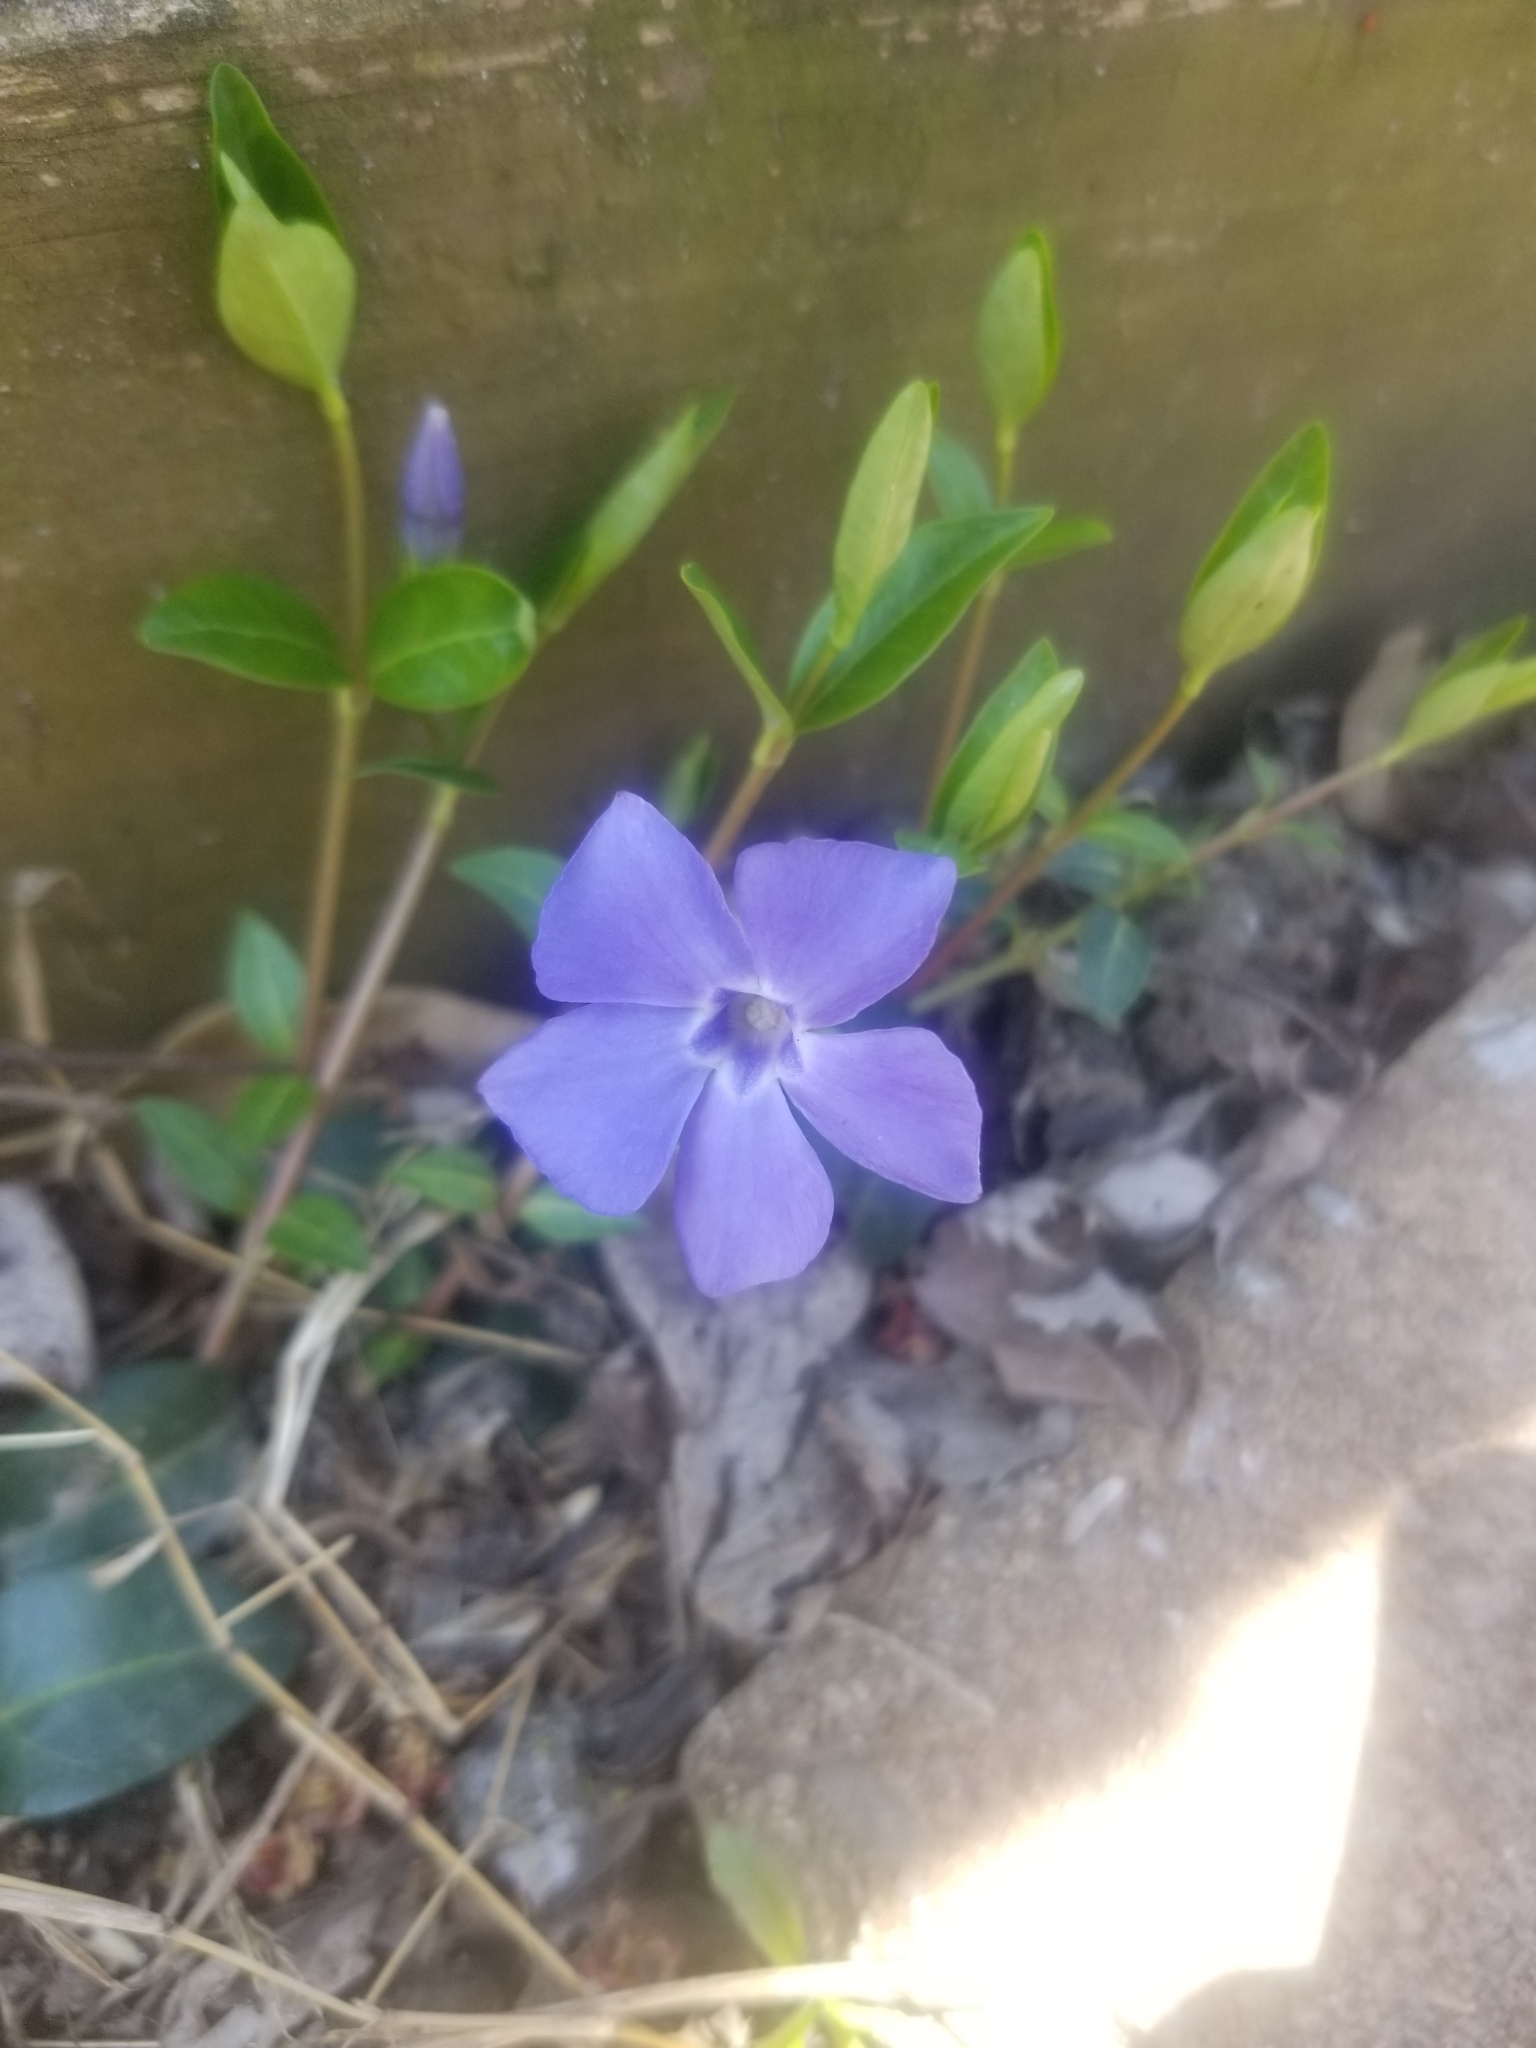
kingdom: Plantae
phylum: Tracheophyta
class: Magnoliopsida
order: Gentianales
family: Apocynaceae
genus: Vinca
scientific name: Vinca minor
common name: Lesser periwinkle
